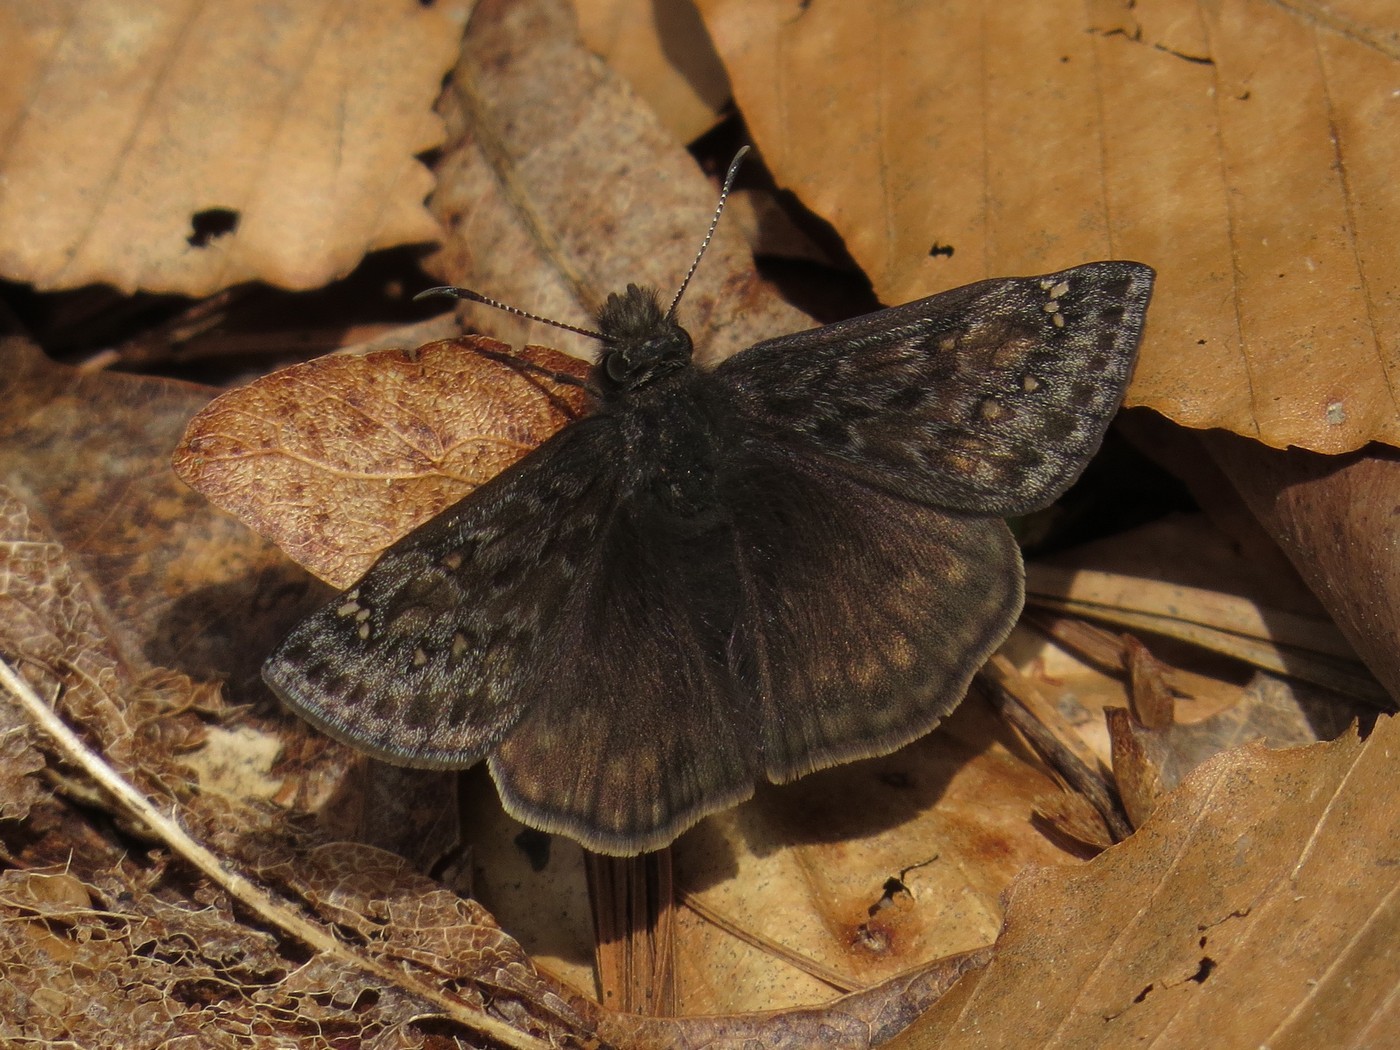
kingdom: Animalia
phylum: Arthropoda
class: Insecta
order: Lepidoptera
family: Hesperiidae
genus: Erynnis
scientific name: Erynnis juvenalis
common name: Juvenal's duskywing
